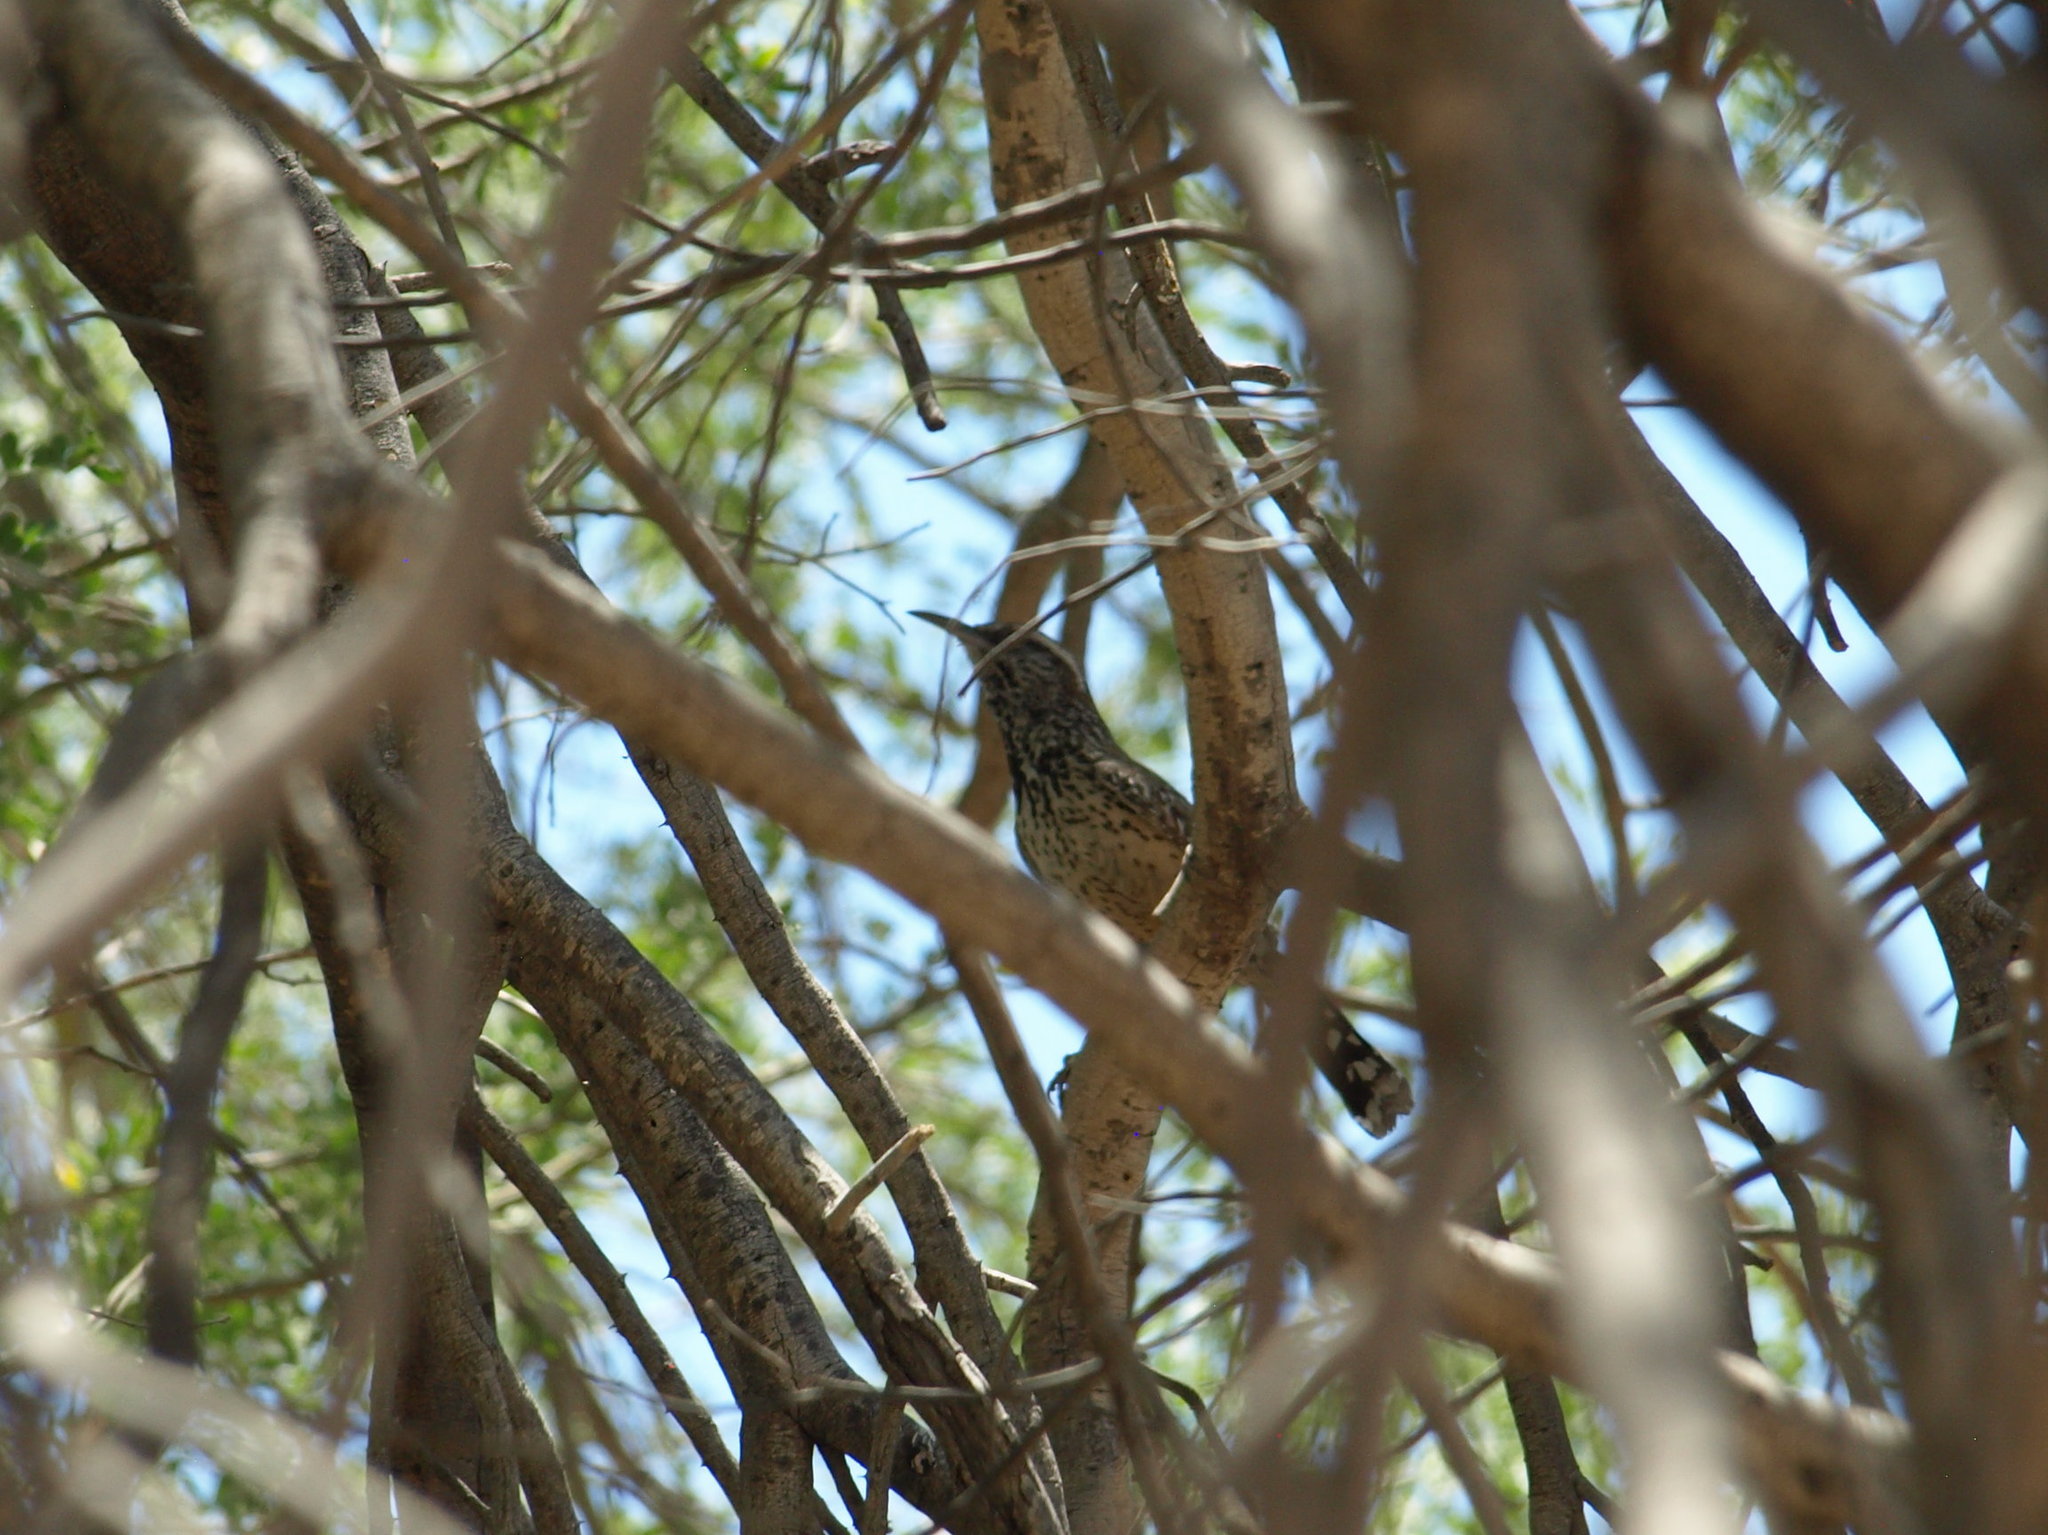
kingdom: Animalia
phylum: Chordata
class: Aves
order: Passeriformes
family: Troglodytidae
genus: Campylorhynchus
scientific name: Campylorhynchus brunneicapillus
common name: Cactus wren
